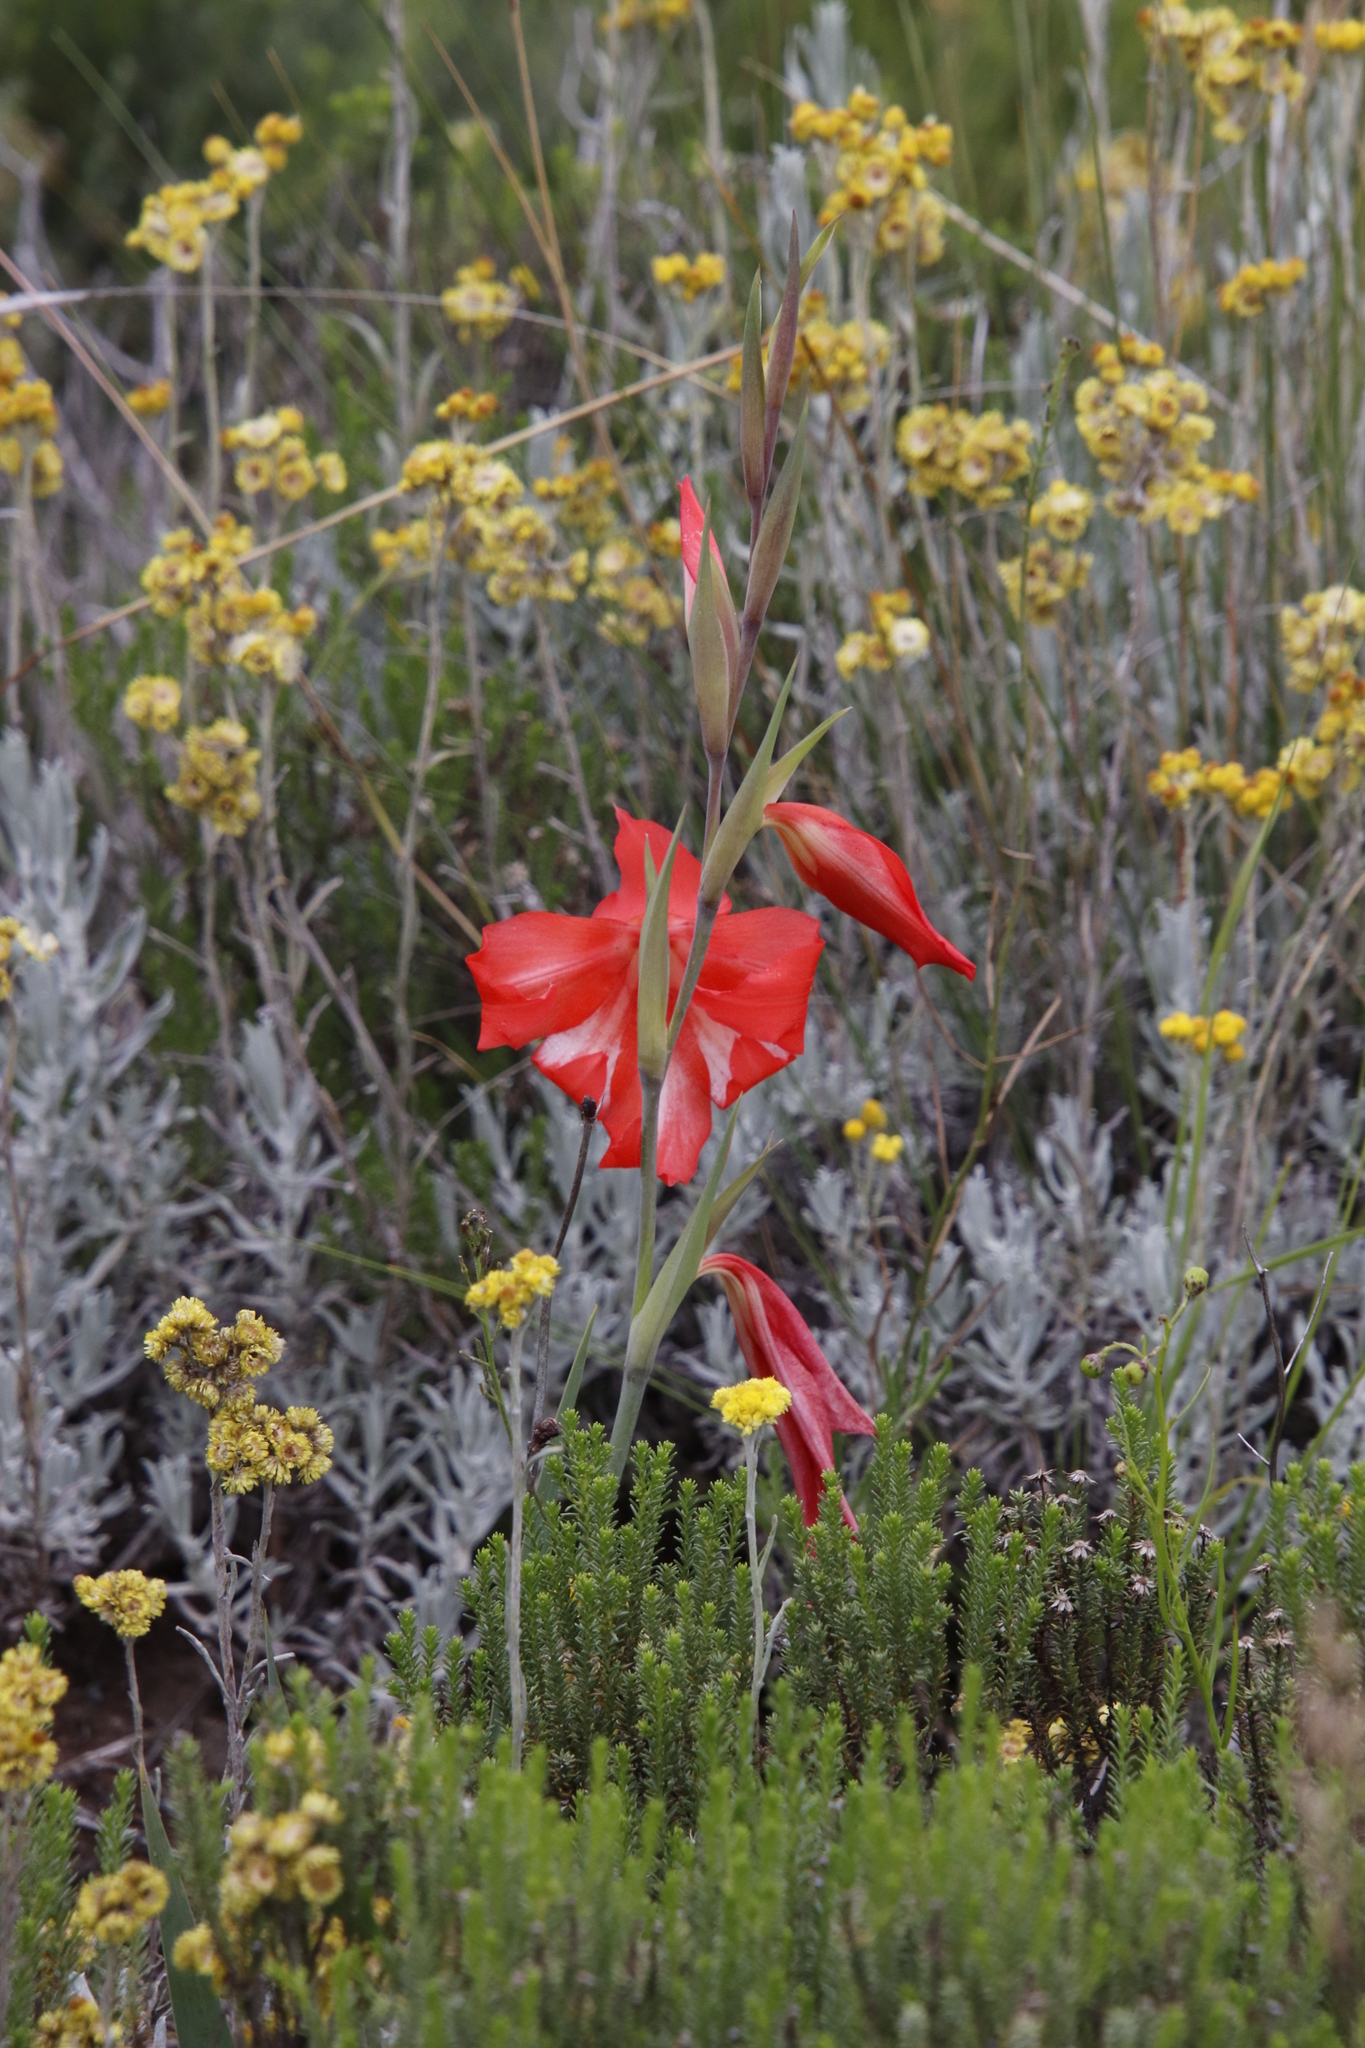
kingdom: Plantae
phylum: Tracheophyta
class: Liliopsida
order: Asparagales
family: Iridaceae
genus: Gladiolus
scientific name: Gladiolus saundersii
